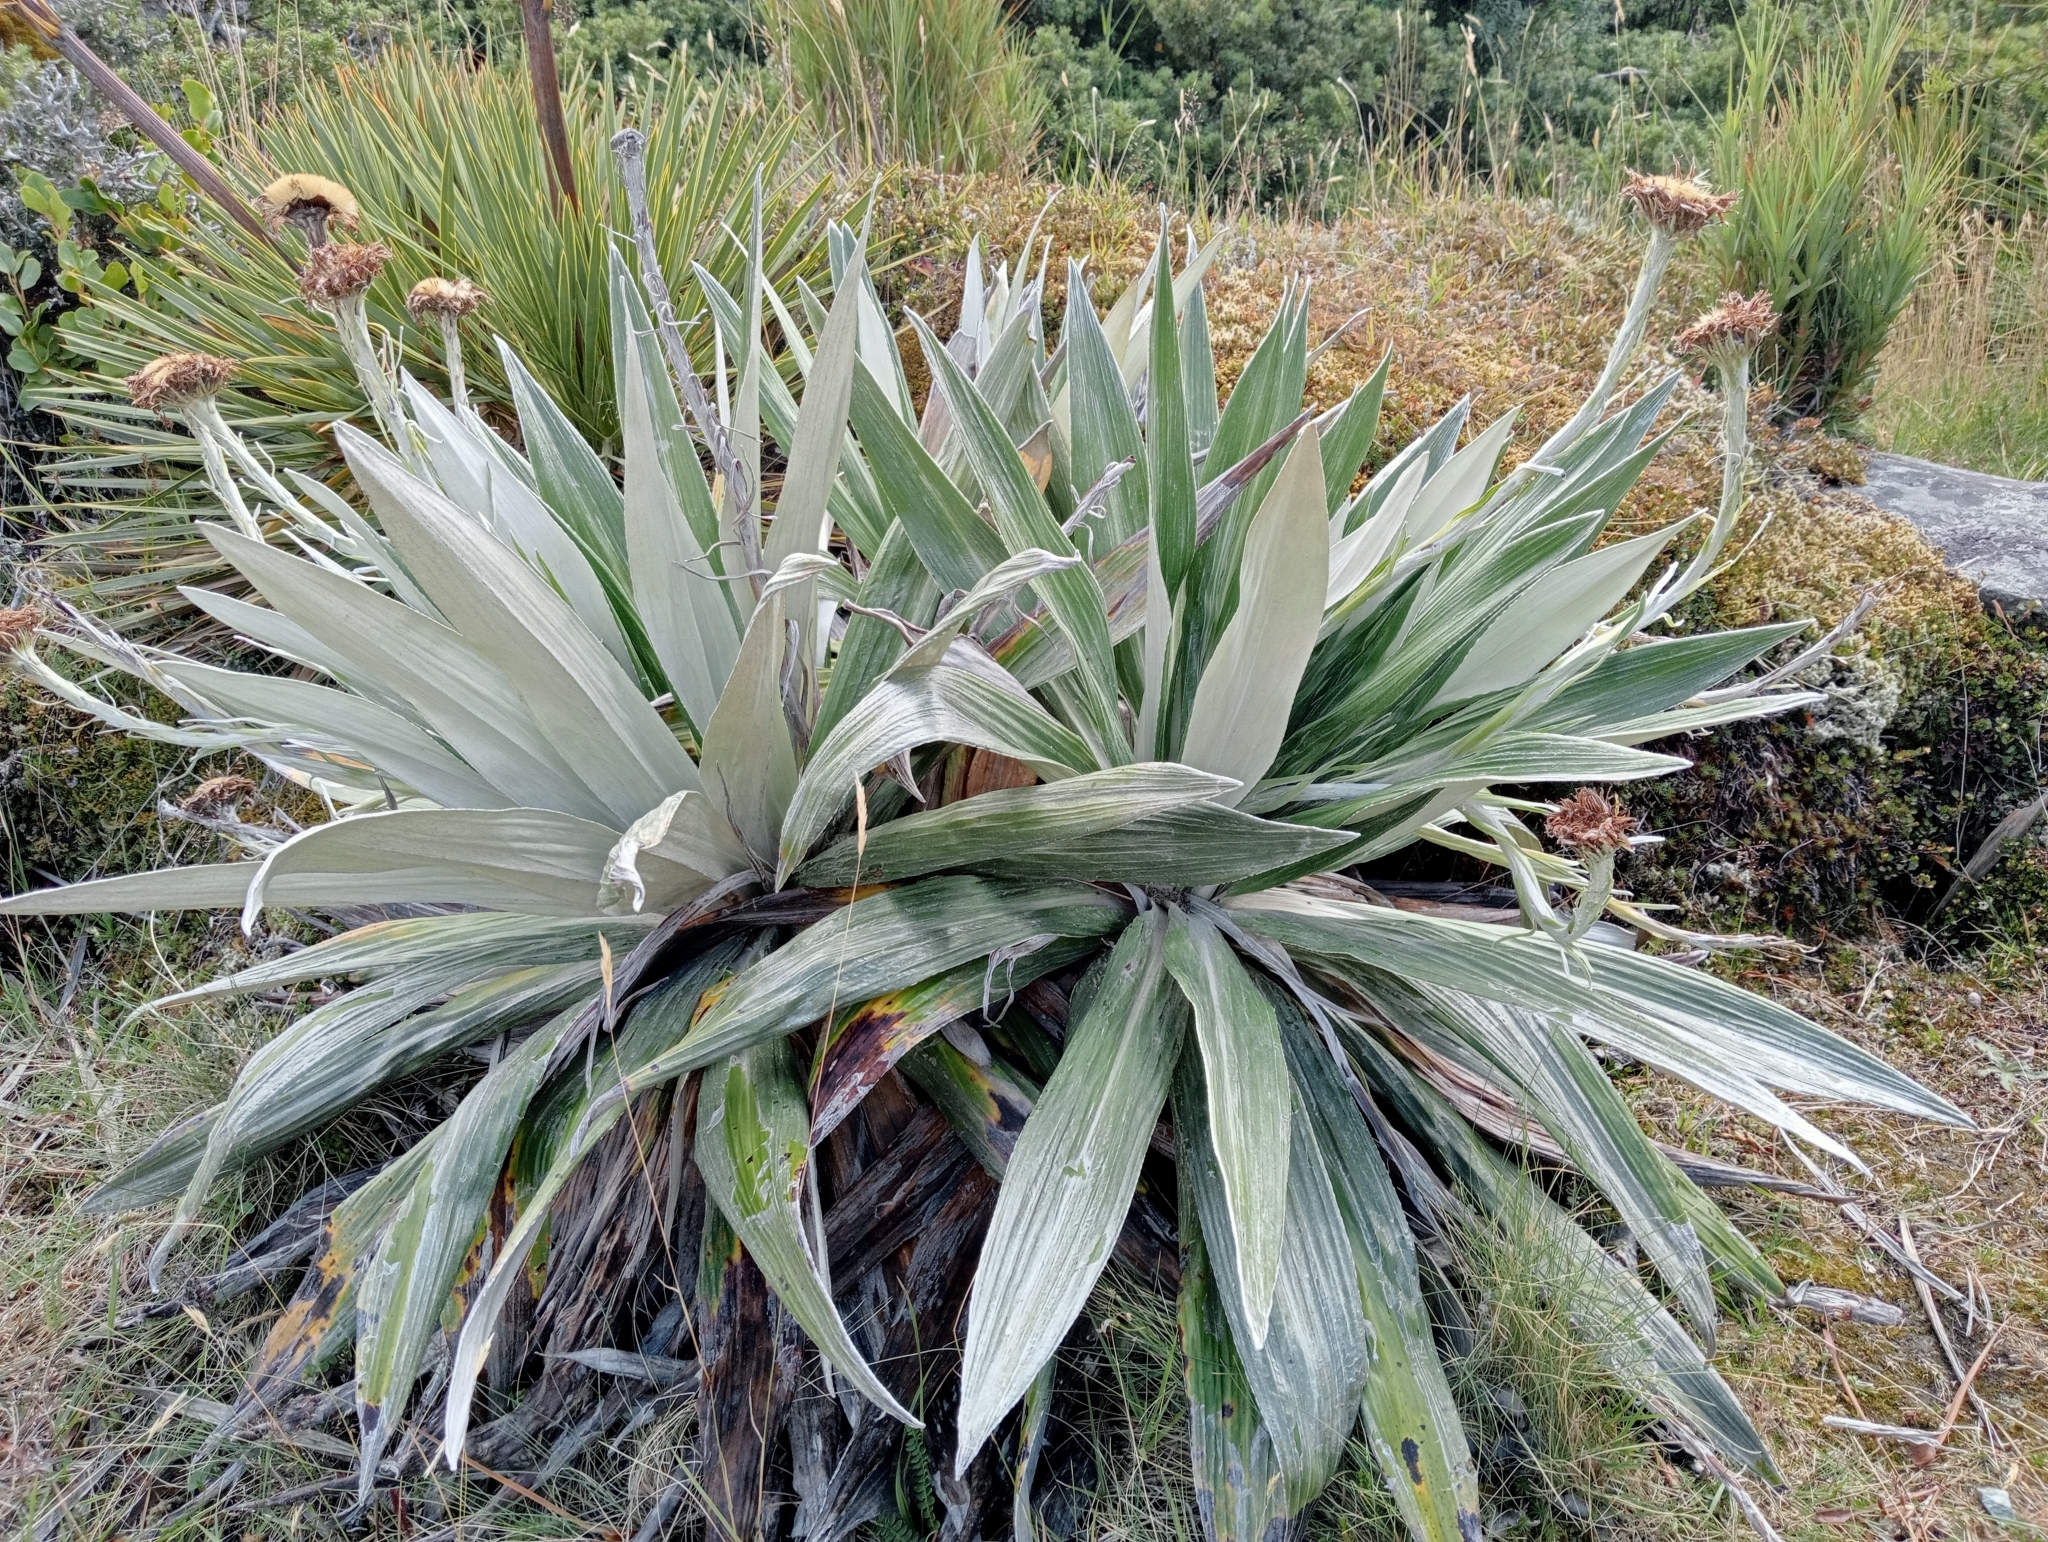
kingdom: Plantae
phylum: Tracheophyta
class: Magnoliopsida
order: Asterales
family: Asteraceae
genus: Celmisia
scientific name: Celmisia semicordata
